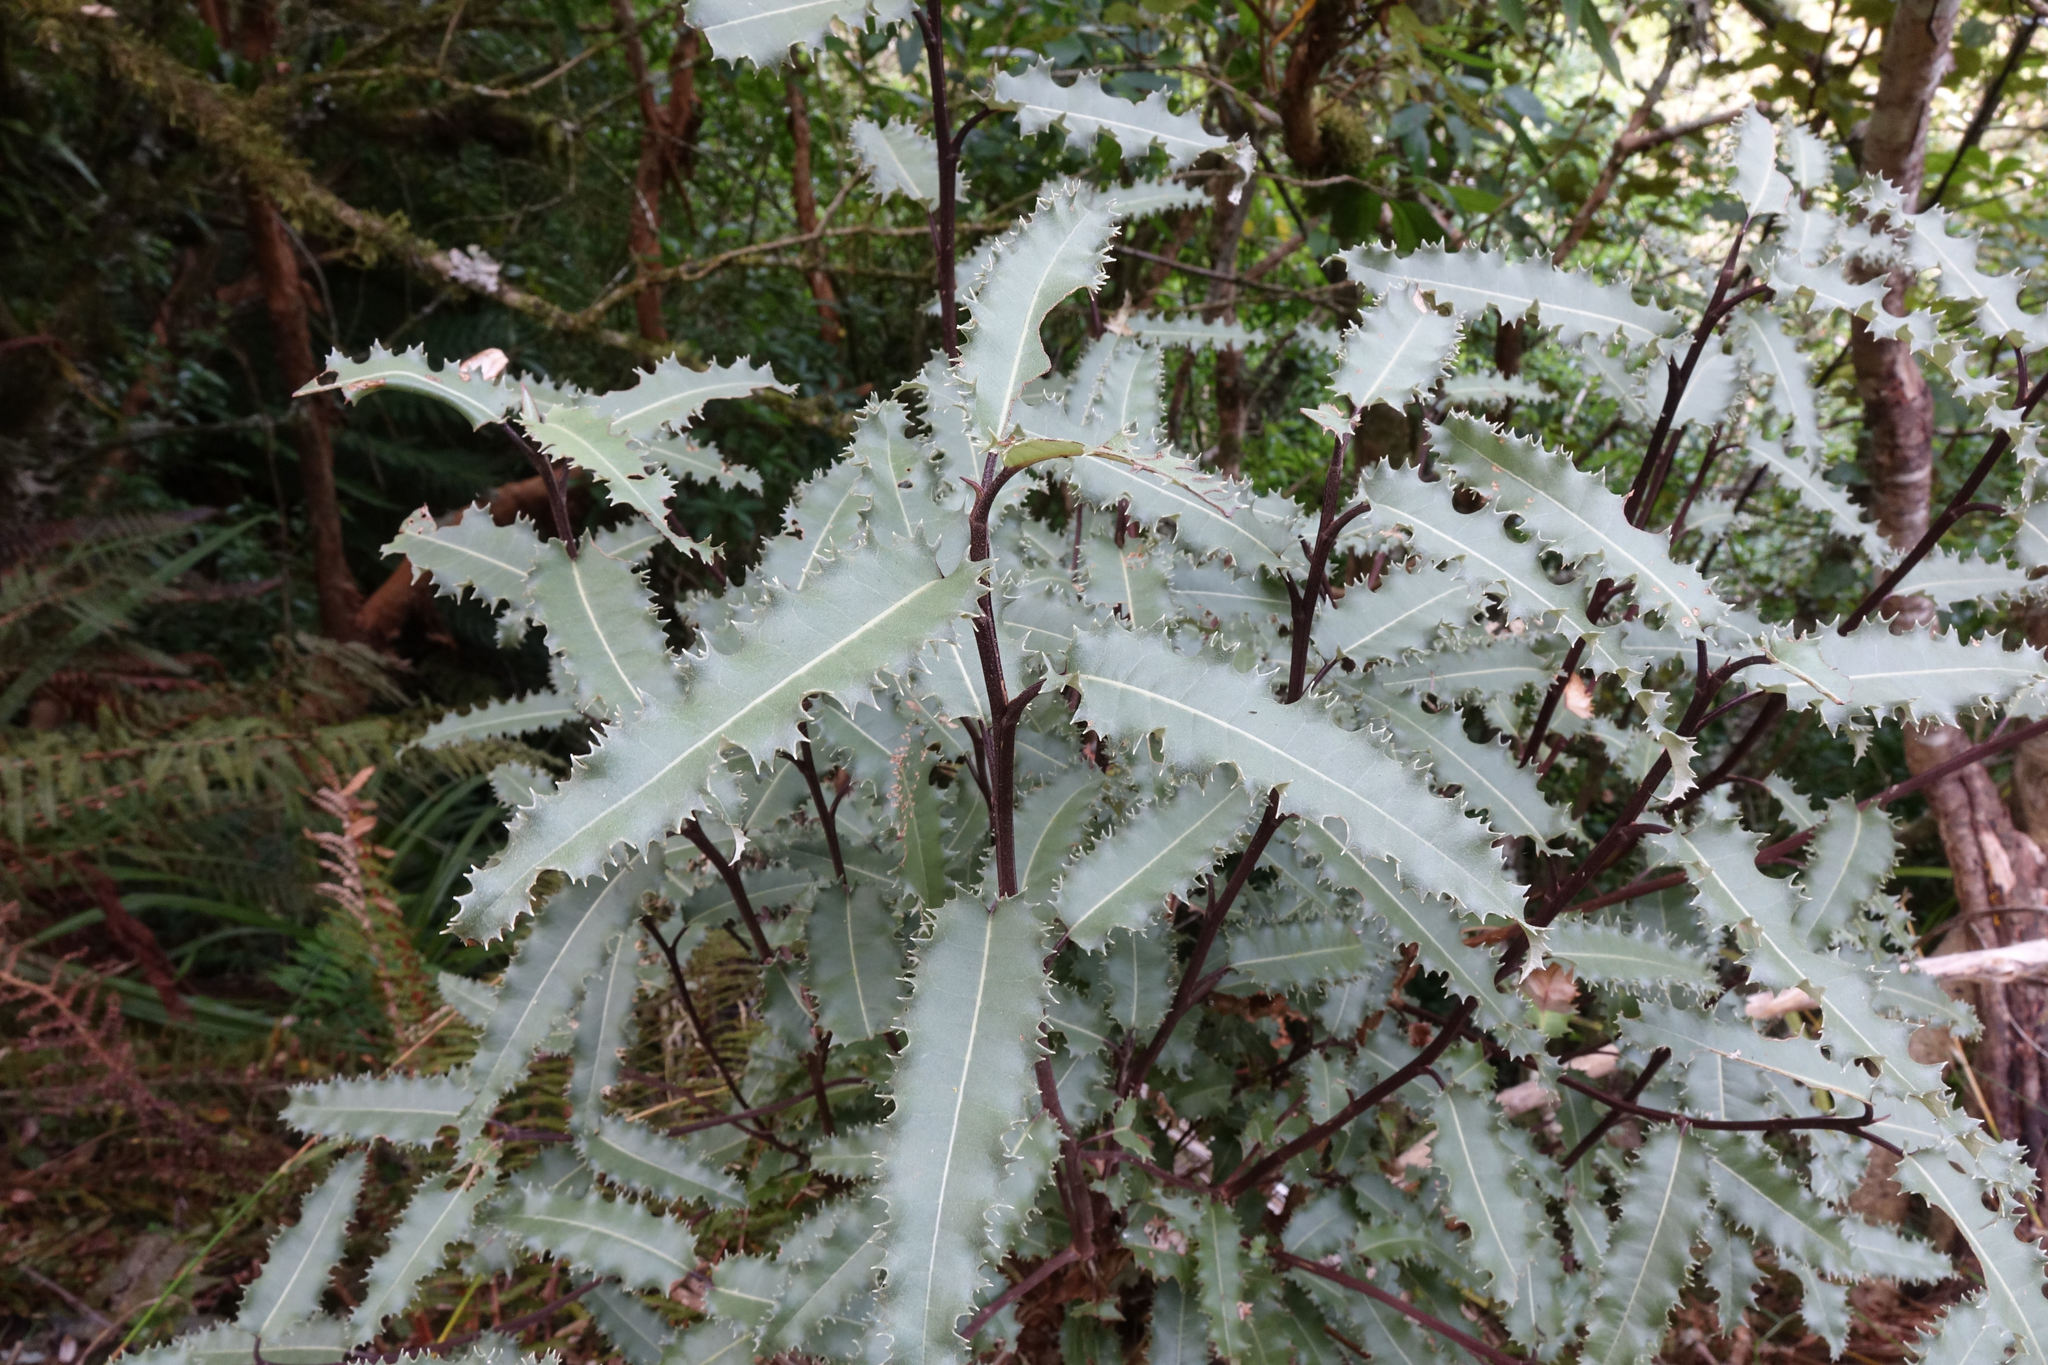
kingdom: Plantae
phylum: Tracheophyta
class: Magnoliopsida
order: Asterales
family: Asteraceae
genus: Olearia
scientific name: Olearia ilicifolia
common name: Maori-holly
